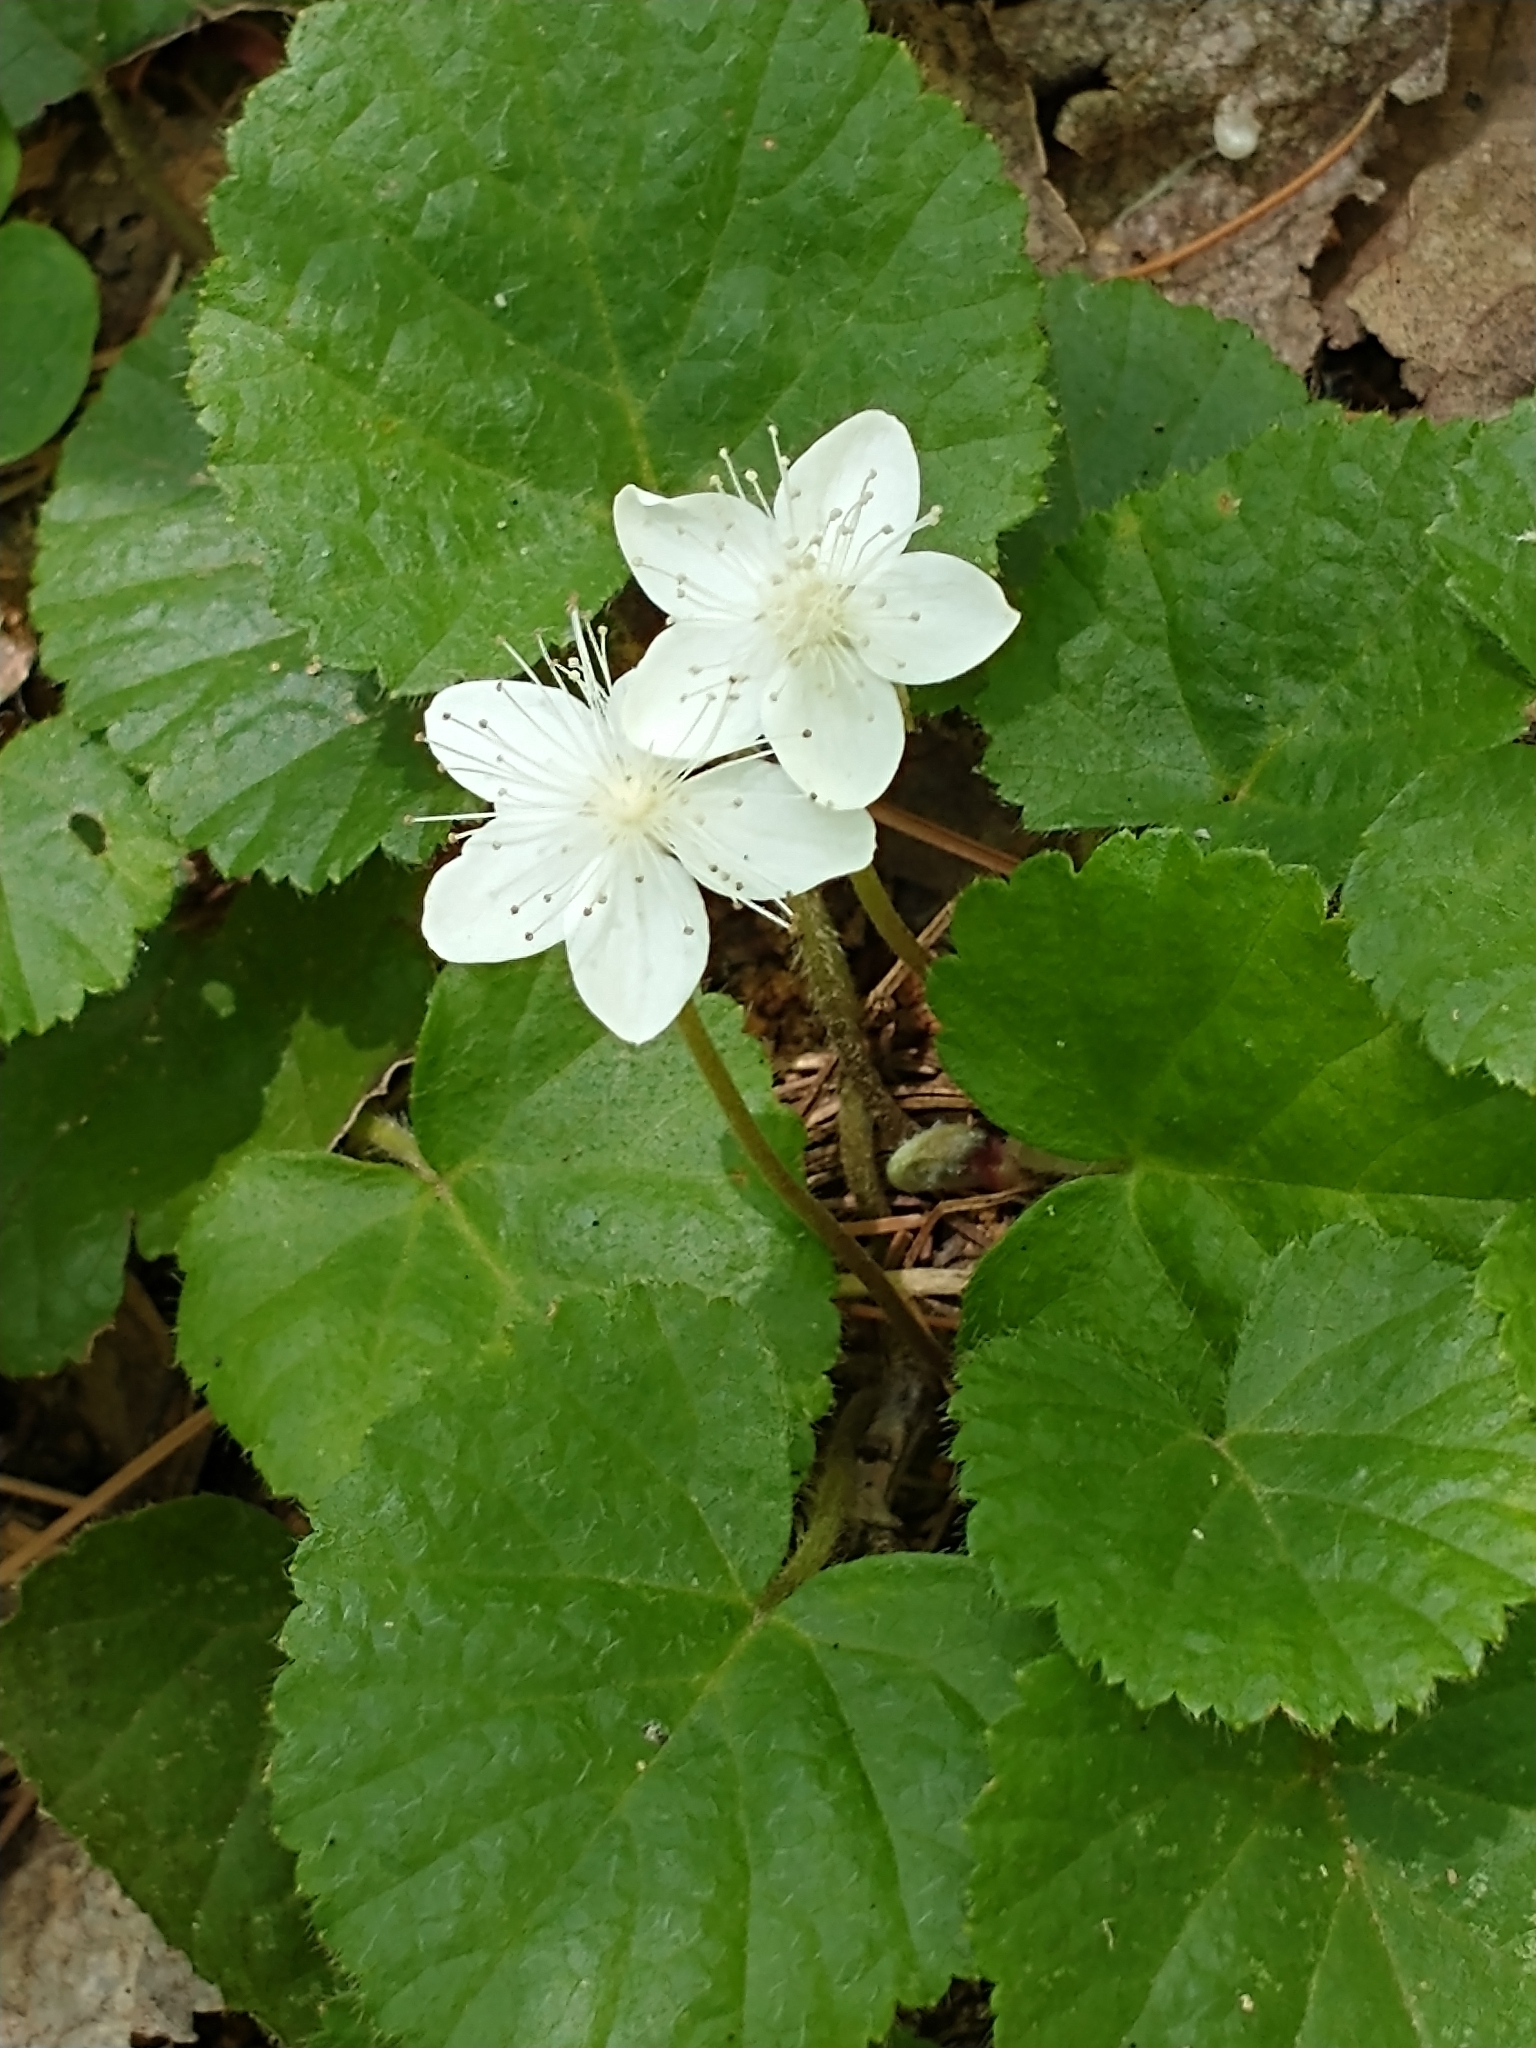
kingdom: Plantae
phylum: Tracheophyta
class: Magnoliopsida
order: Rosales
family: Rosaceae
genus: Dalibarda
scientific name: Dalibarda repens
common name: Dewdrop
